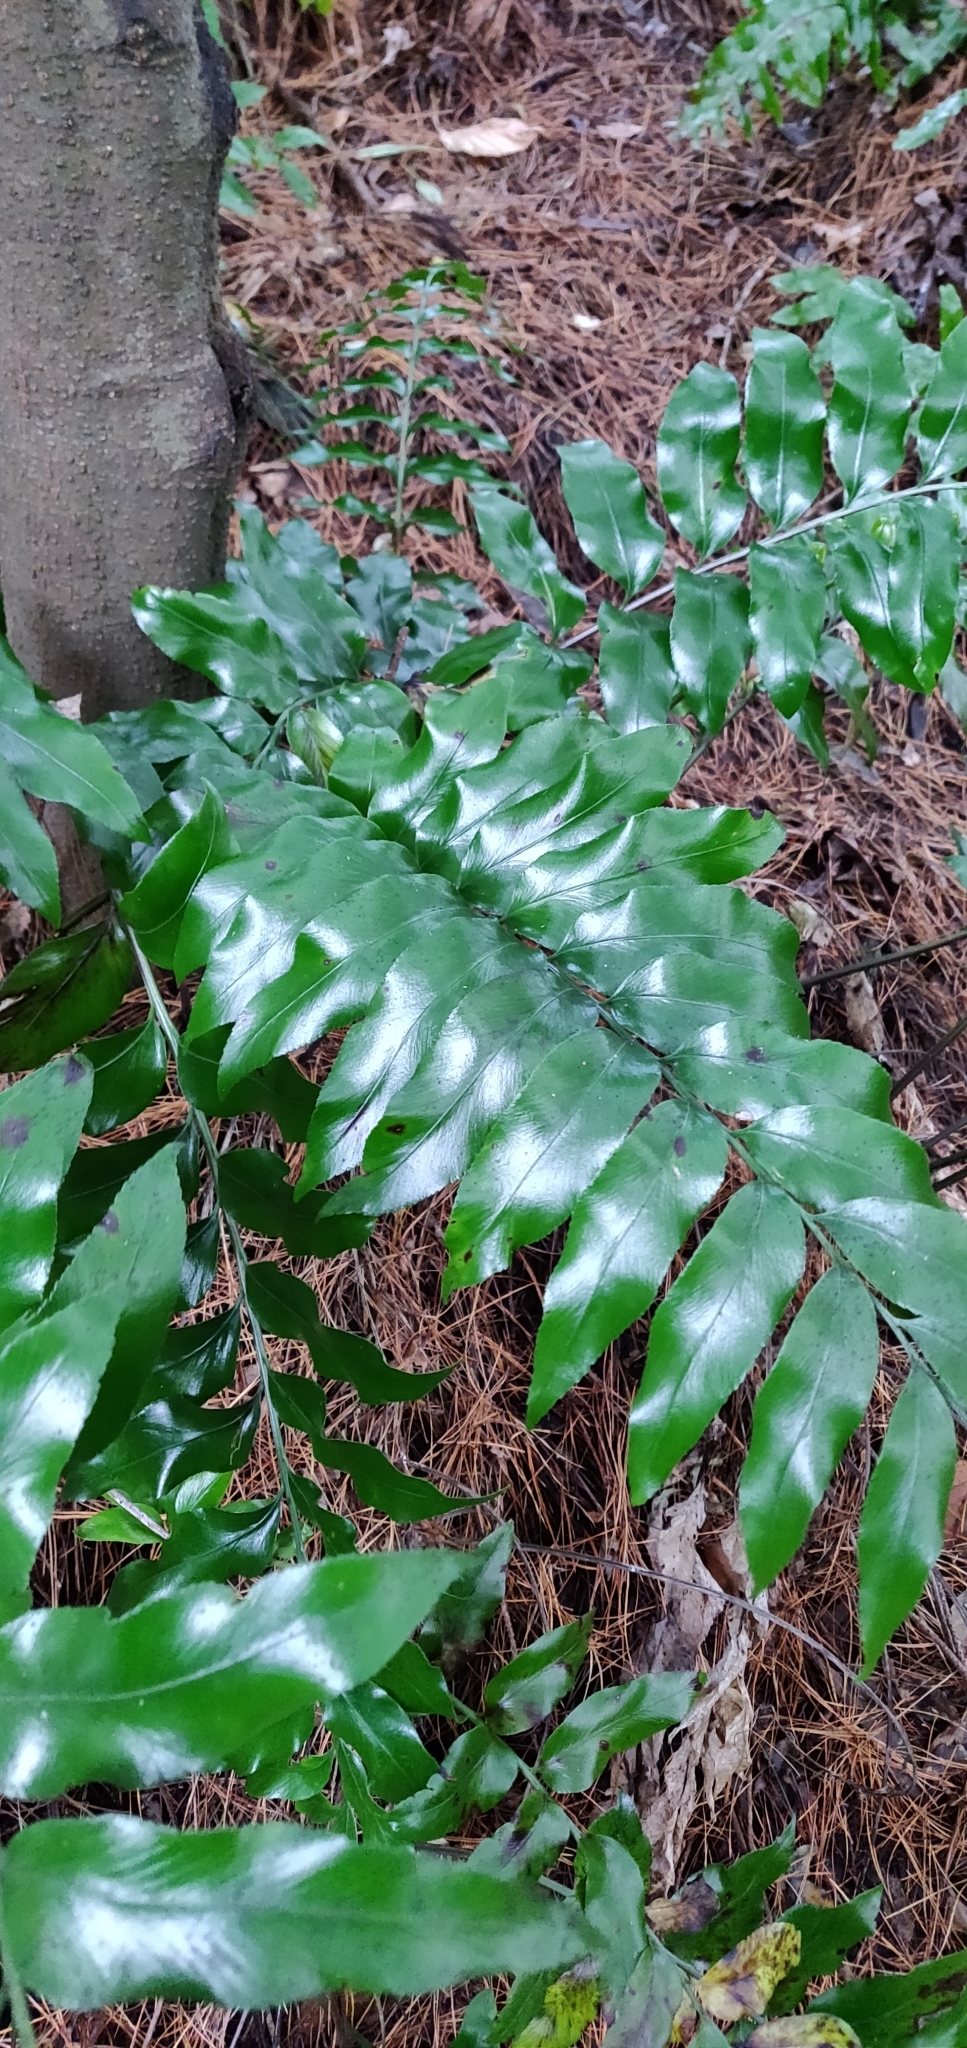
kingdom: Plantae
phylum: Tracheophyta
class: Polypodiopsida
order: Polypodiales
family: Aspleniaceae
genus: Asplenium
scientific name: Asplenium oblongifolium
